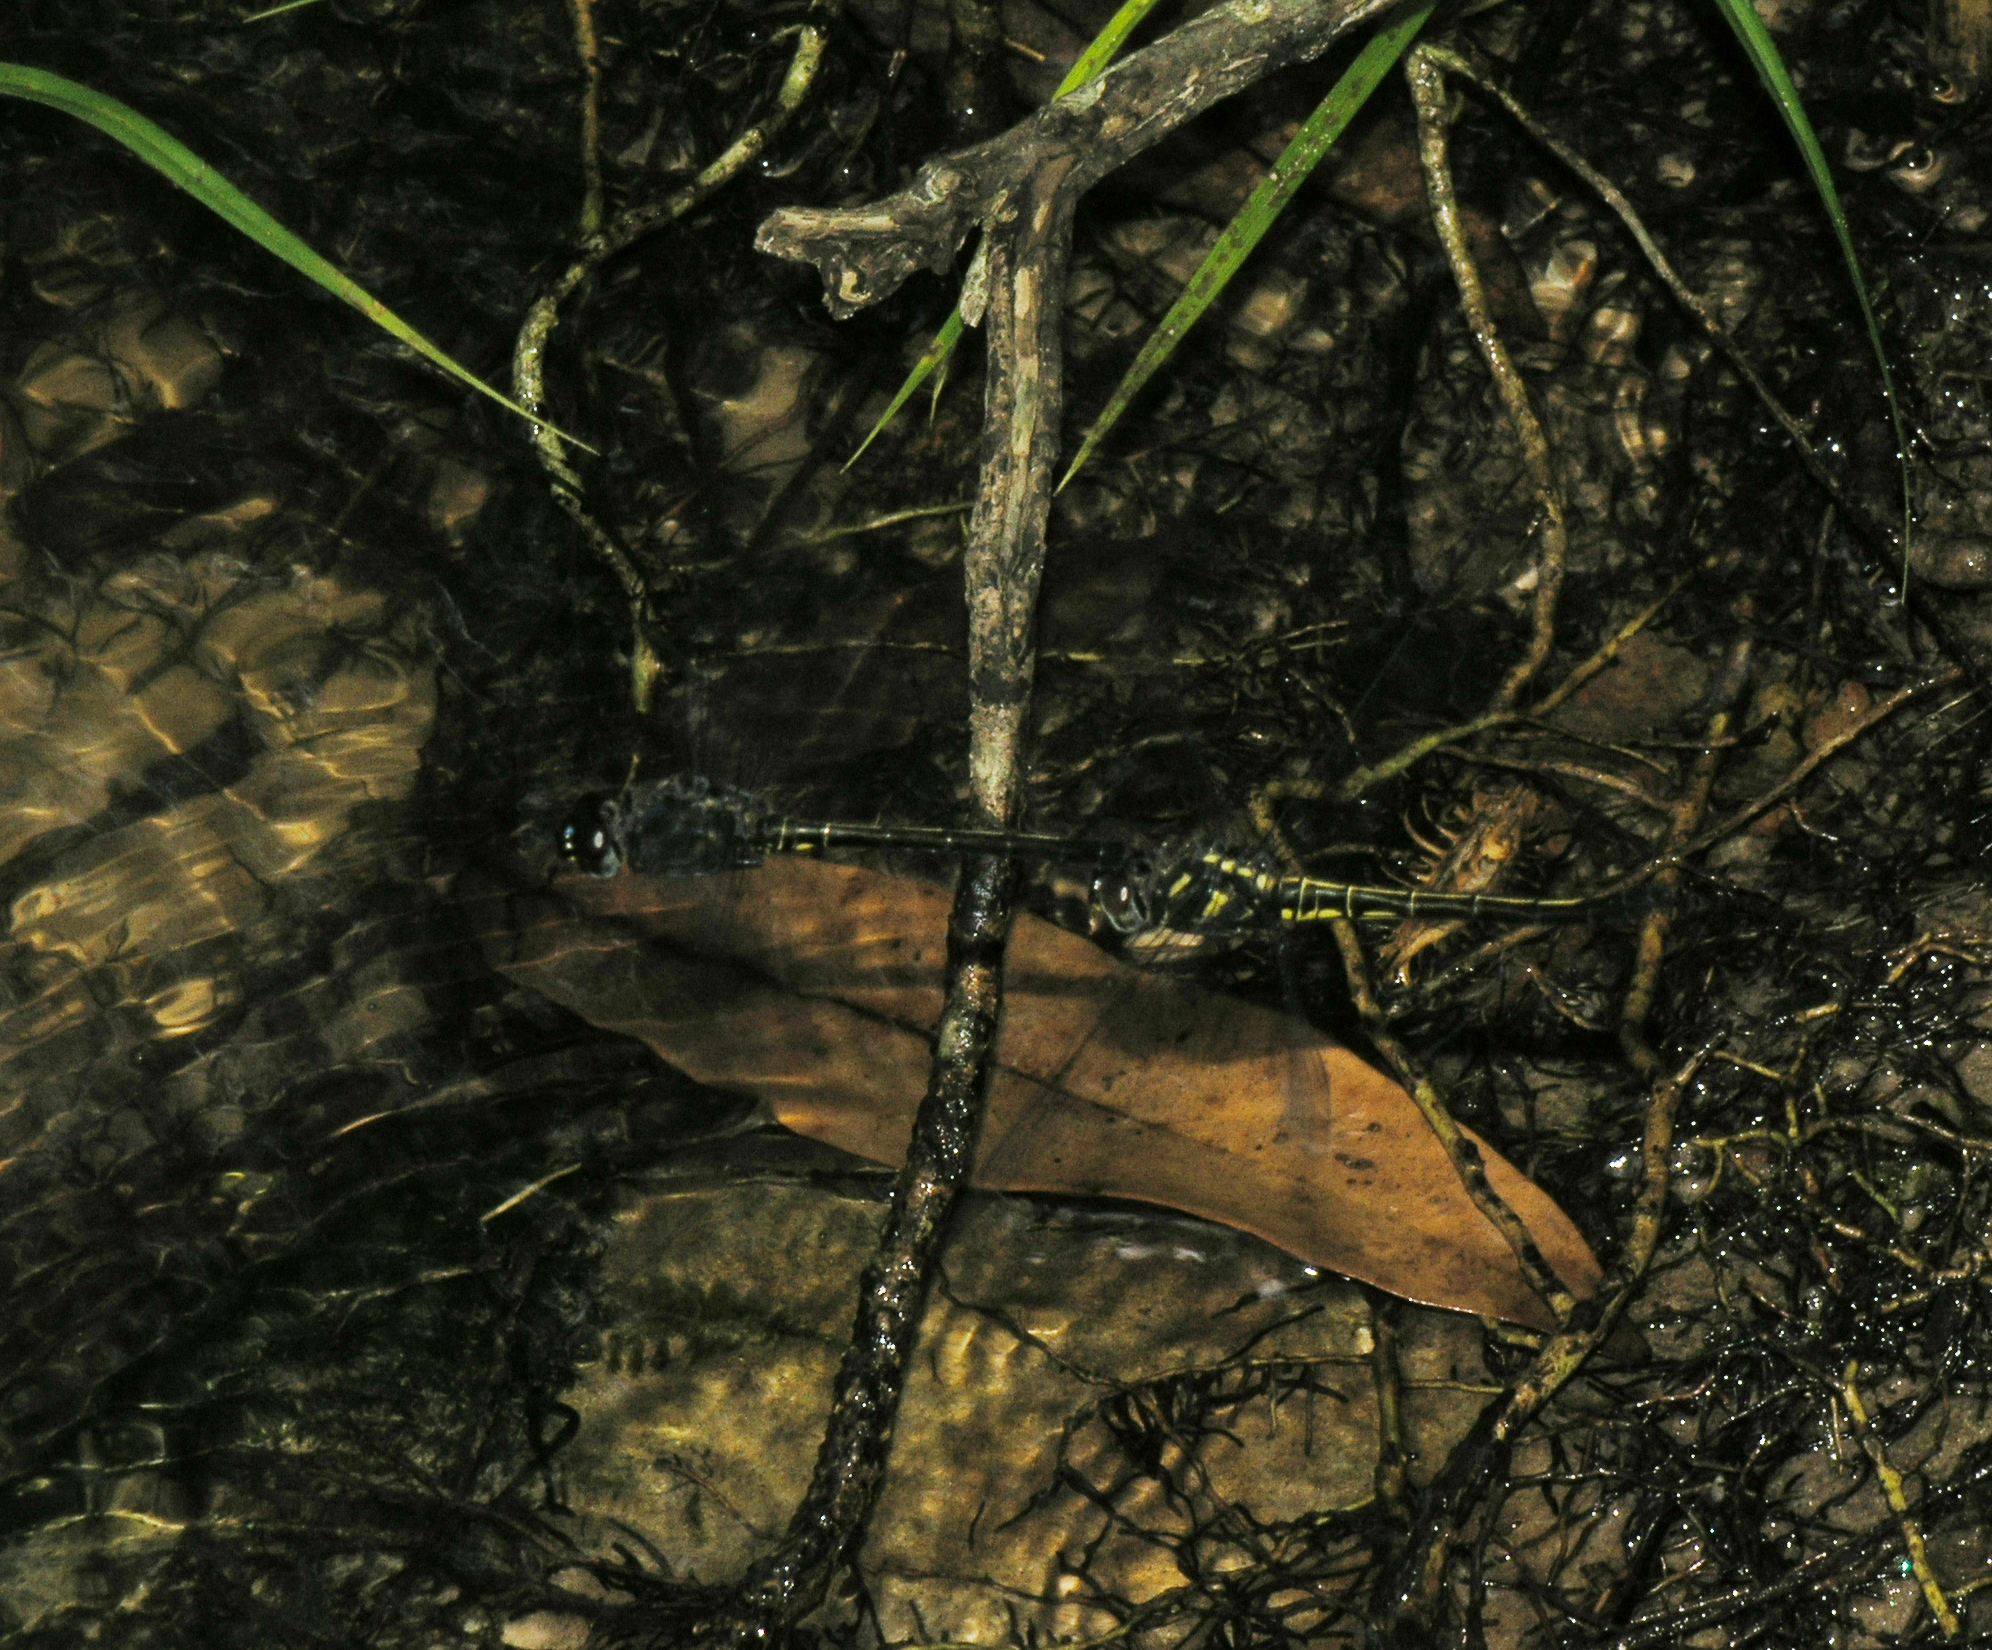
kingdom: Animalia
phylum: Arthropoda
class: Insecta
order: Odonata
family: Libellulidae
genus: Zygonyx
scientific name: Zygonyx iris
